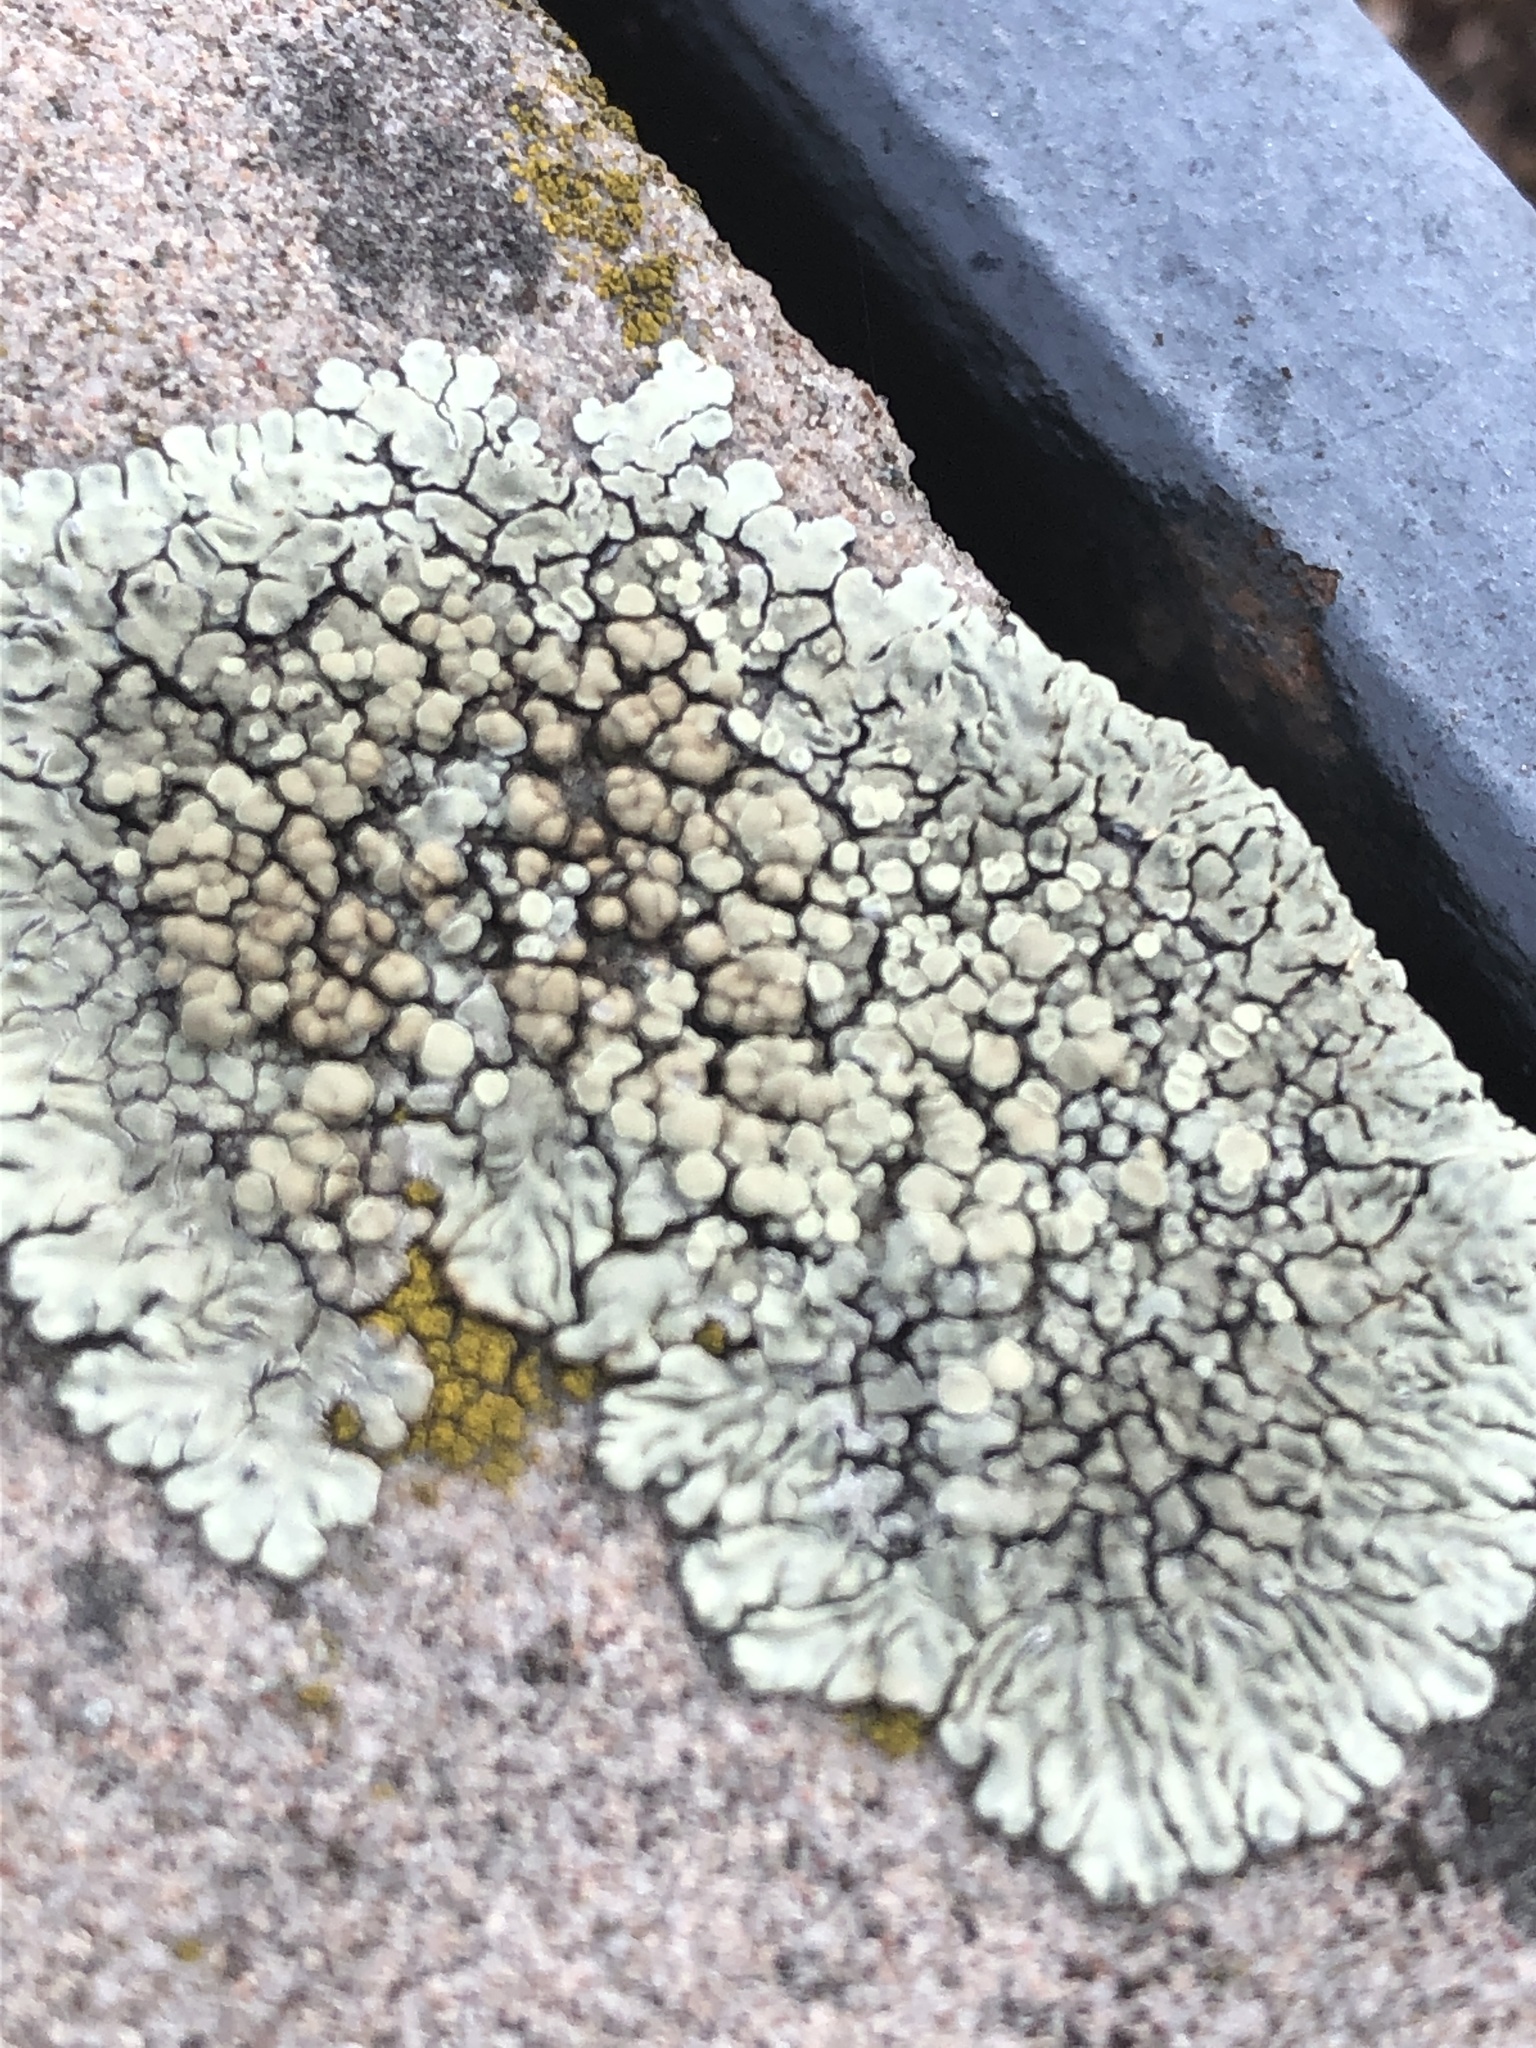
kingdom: Fungi
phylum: Ascomycota
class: Lecanoromycetes
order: Lecanorales
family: Lecanoraceae
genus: Protoparmeliopsis
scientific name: Protoparmeliopsis muralis
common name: Stonewall rim lichen
